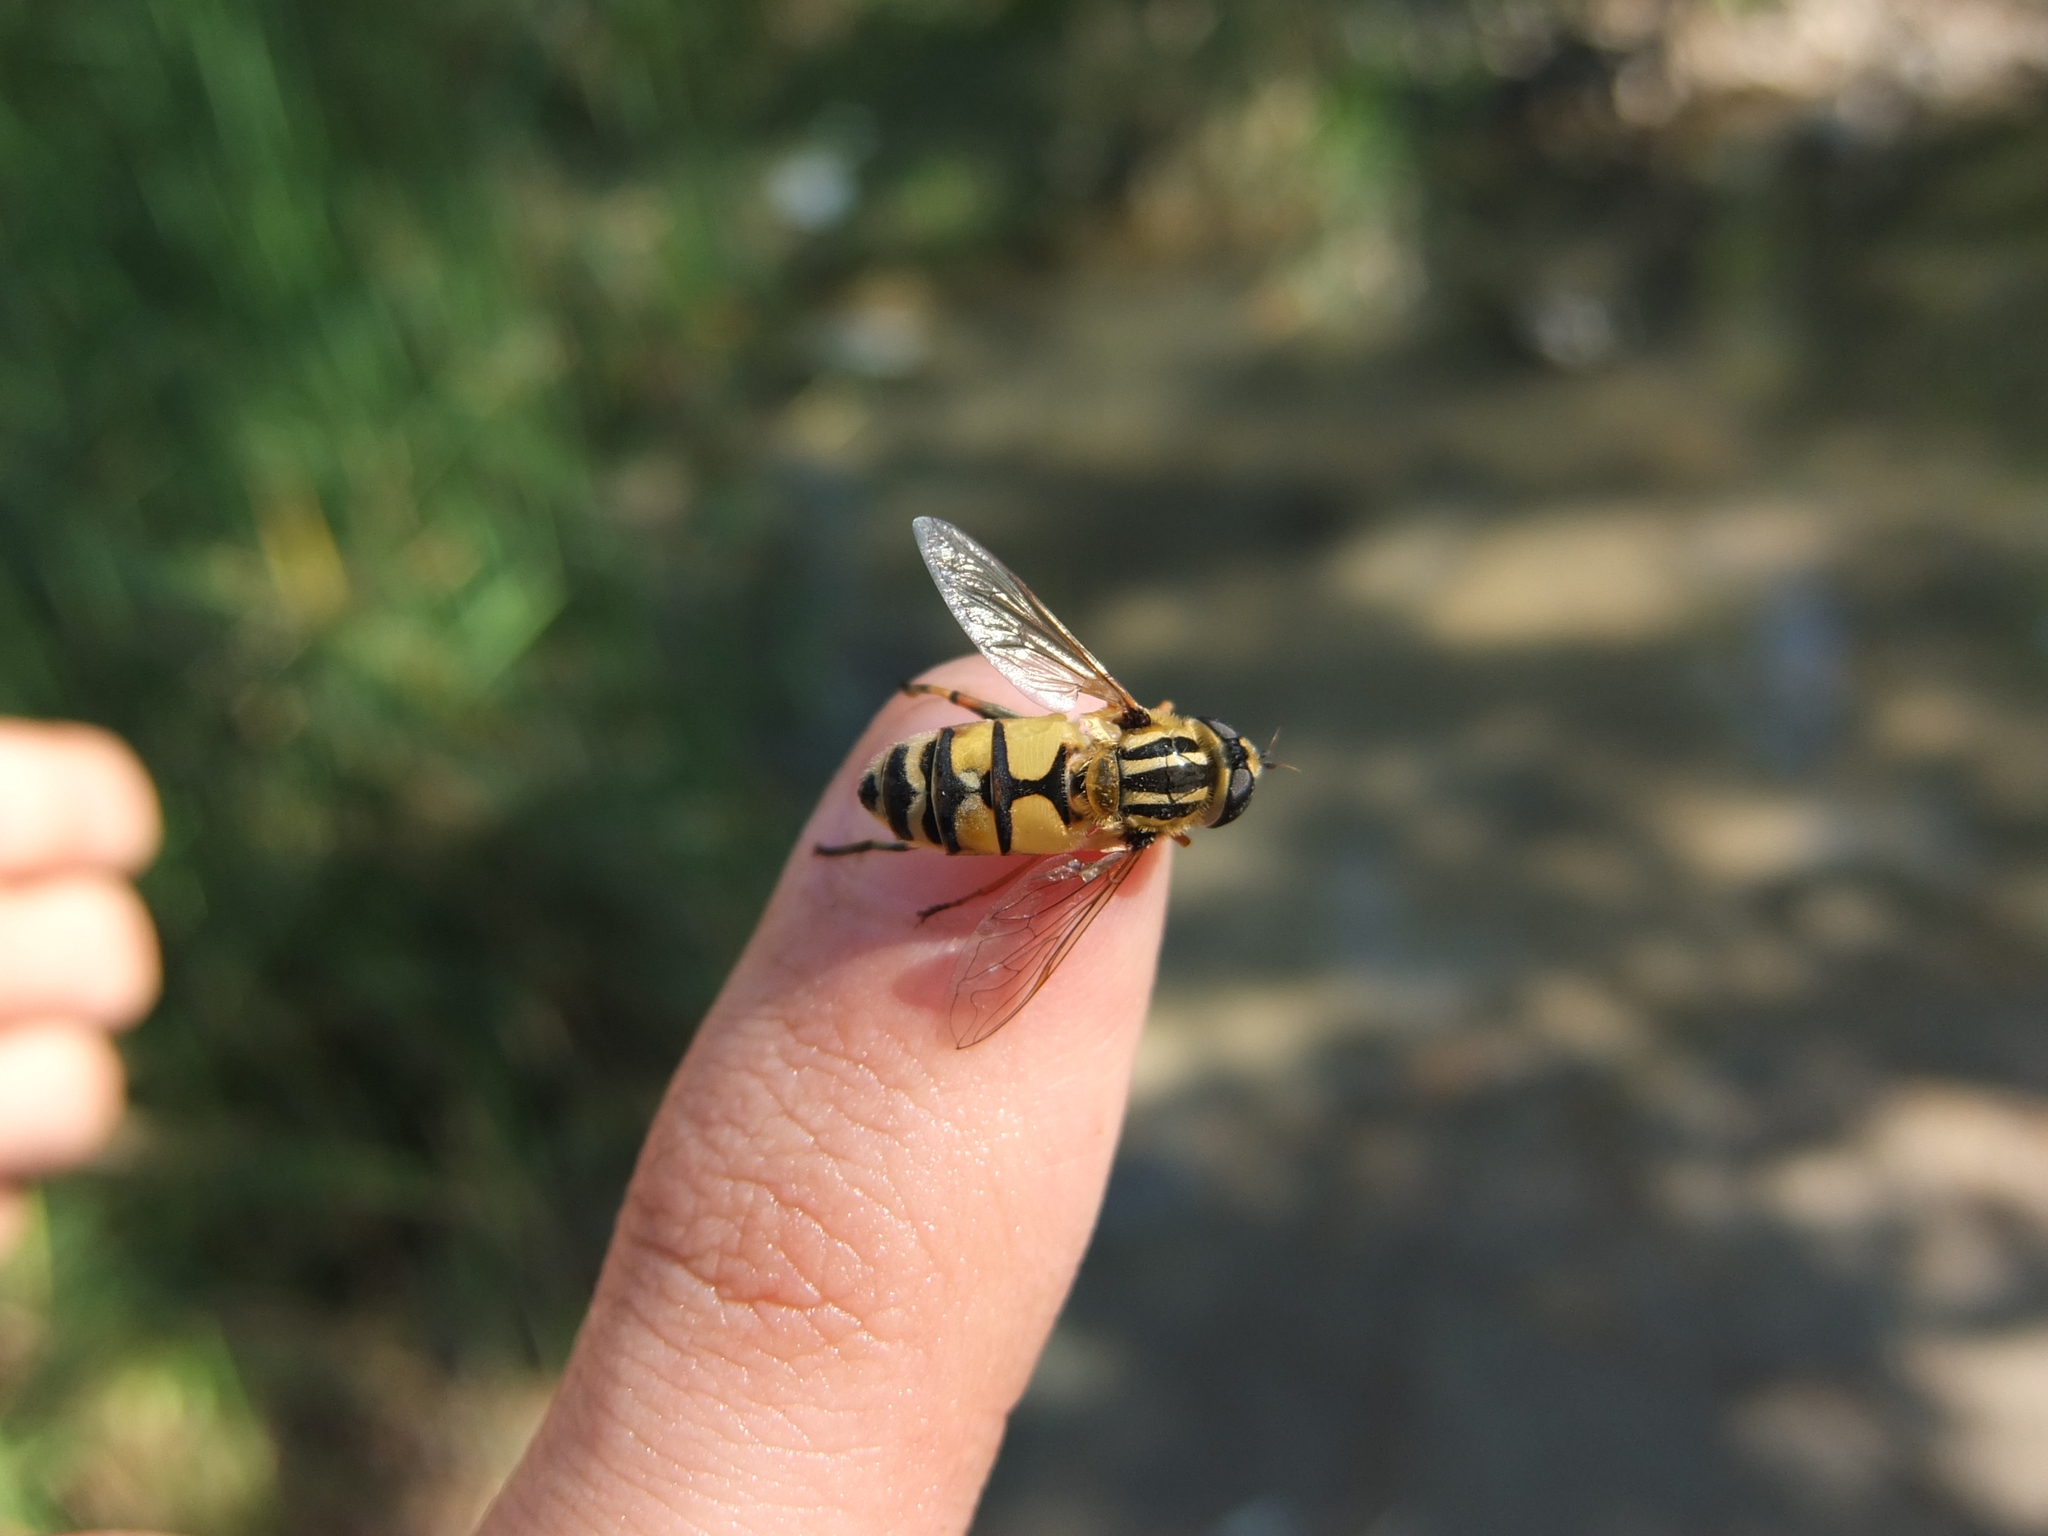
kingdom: Animalia
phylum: Arthropoda
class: Insecta
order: Diptera
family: Syrphidae
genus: Helophilus
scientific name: Helophilus trivittatus
